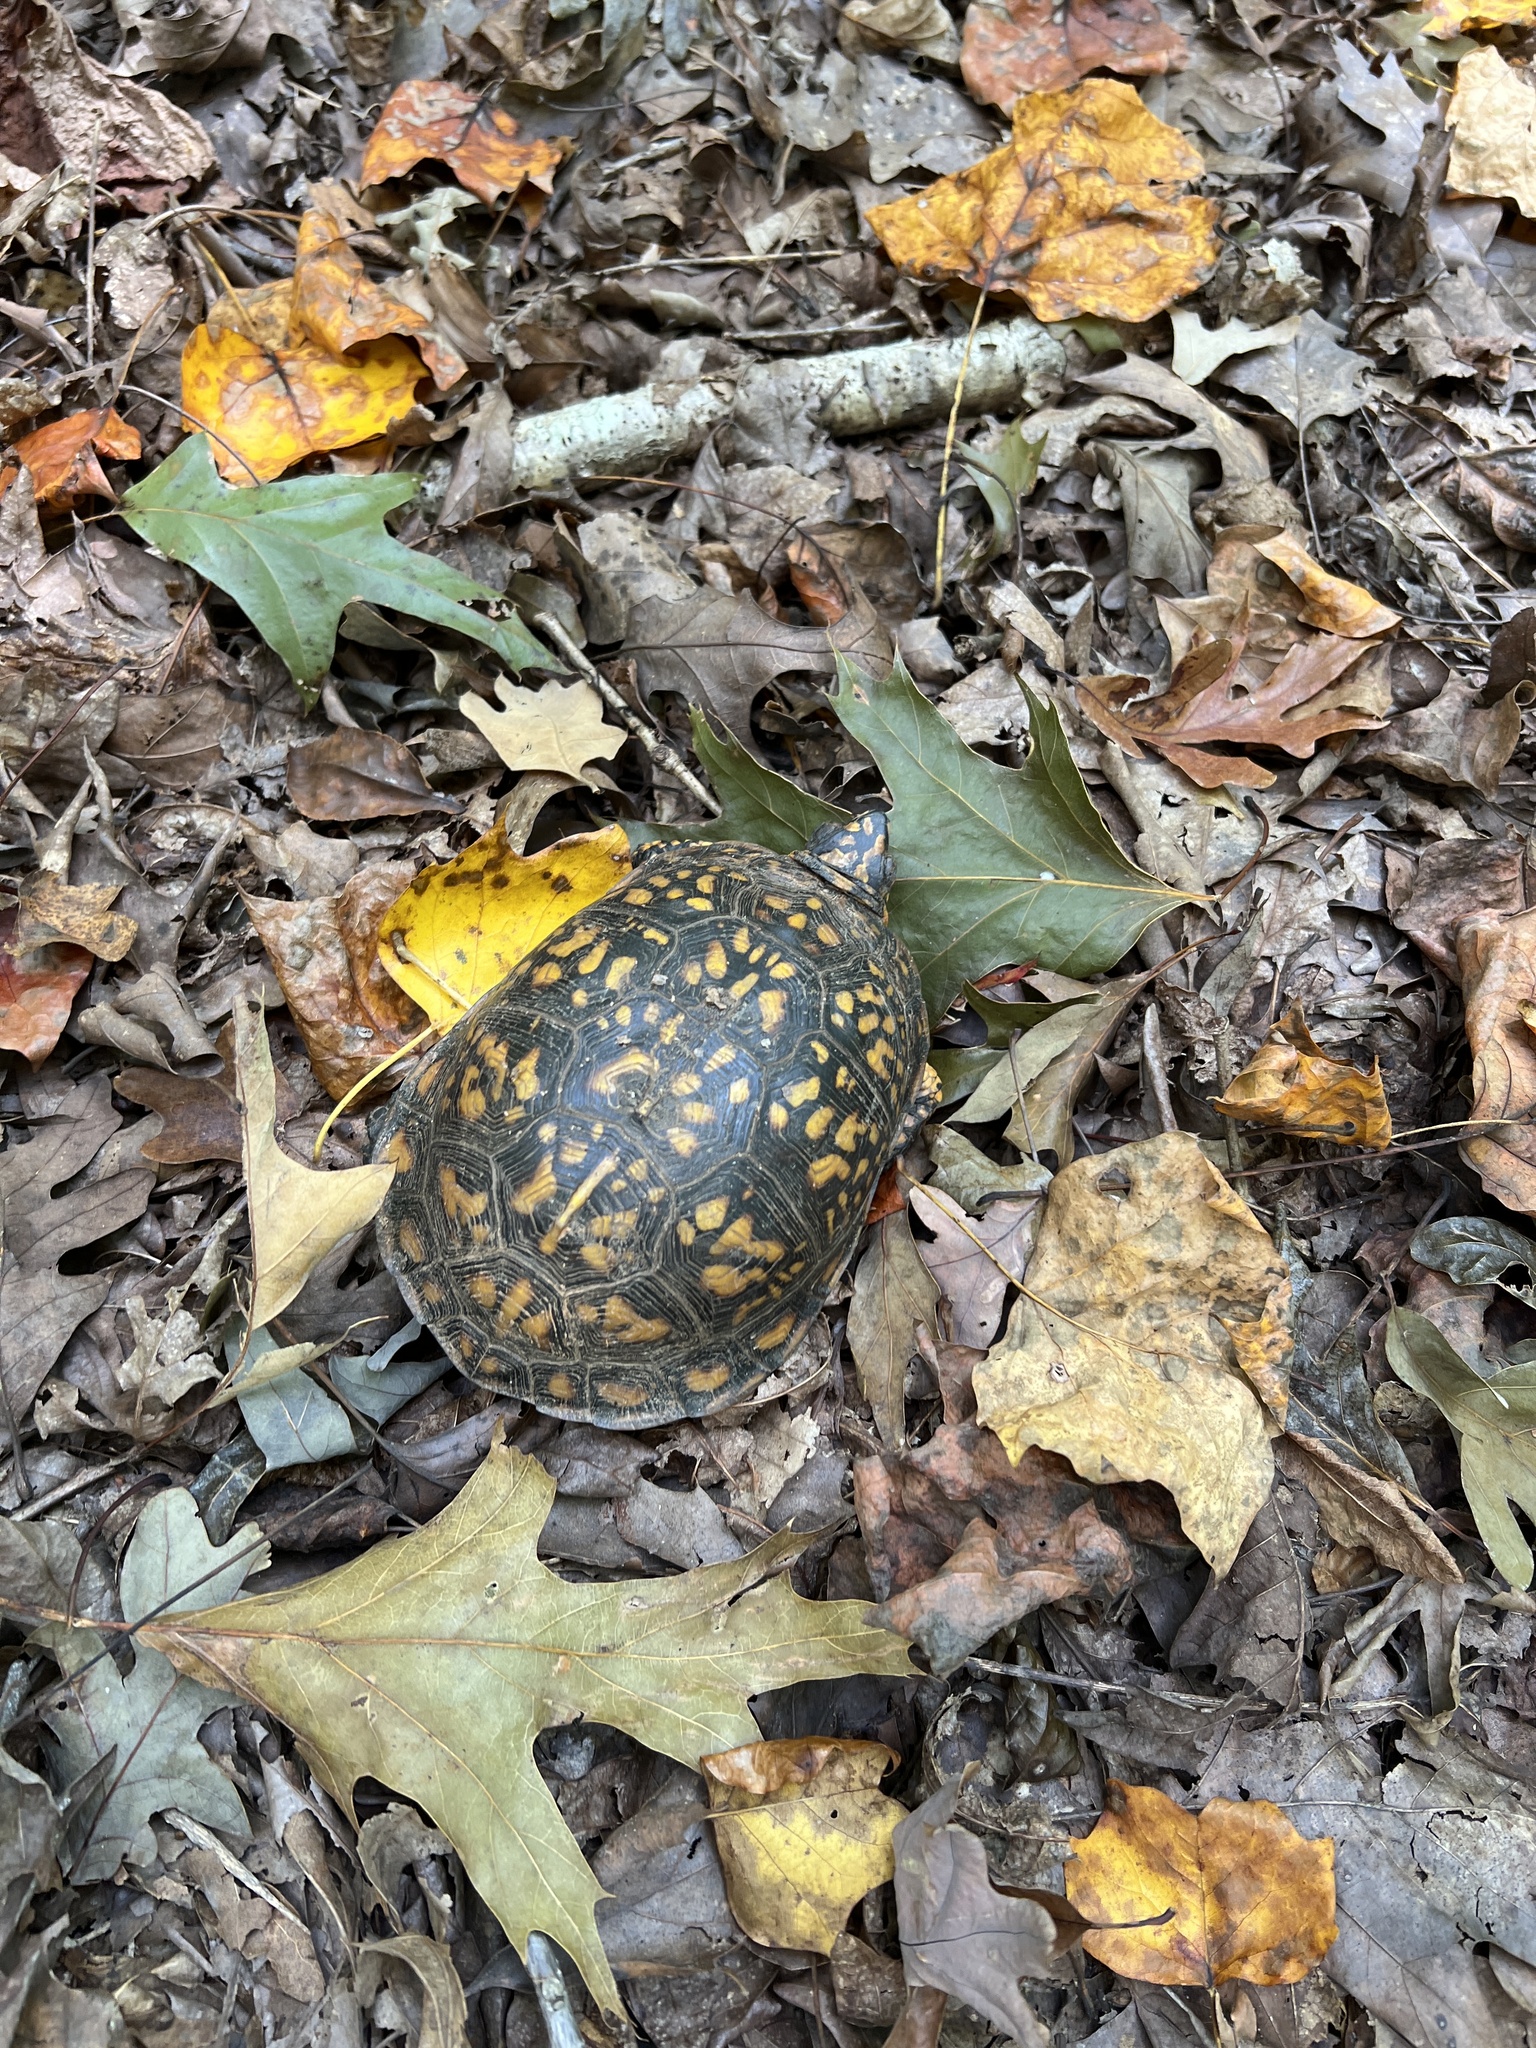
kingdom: Animalia
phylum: Chordata
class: Testudines
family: Emydidae
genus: Terrapene
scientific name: Terrapene carolina
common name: Common box turtle
